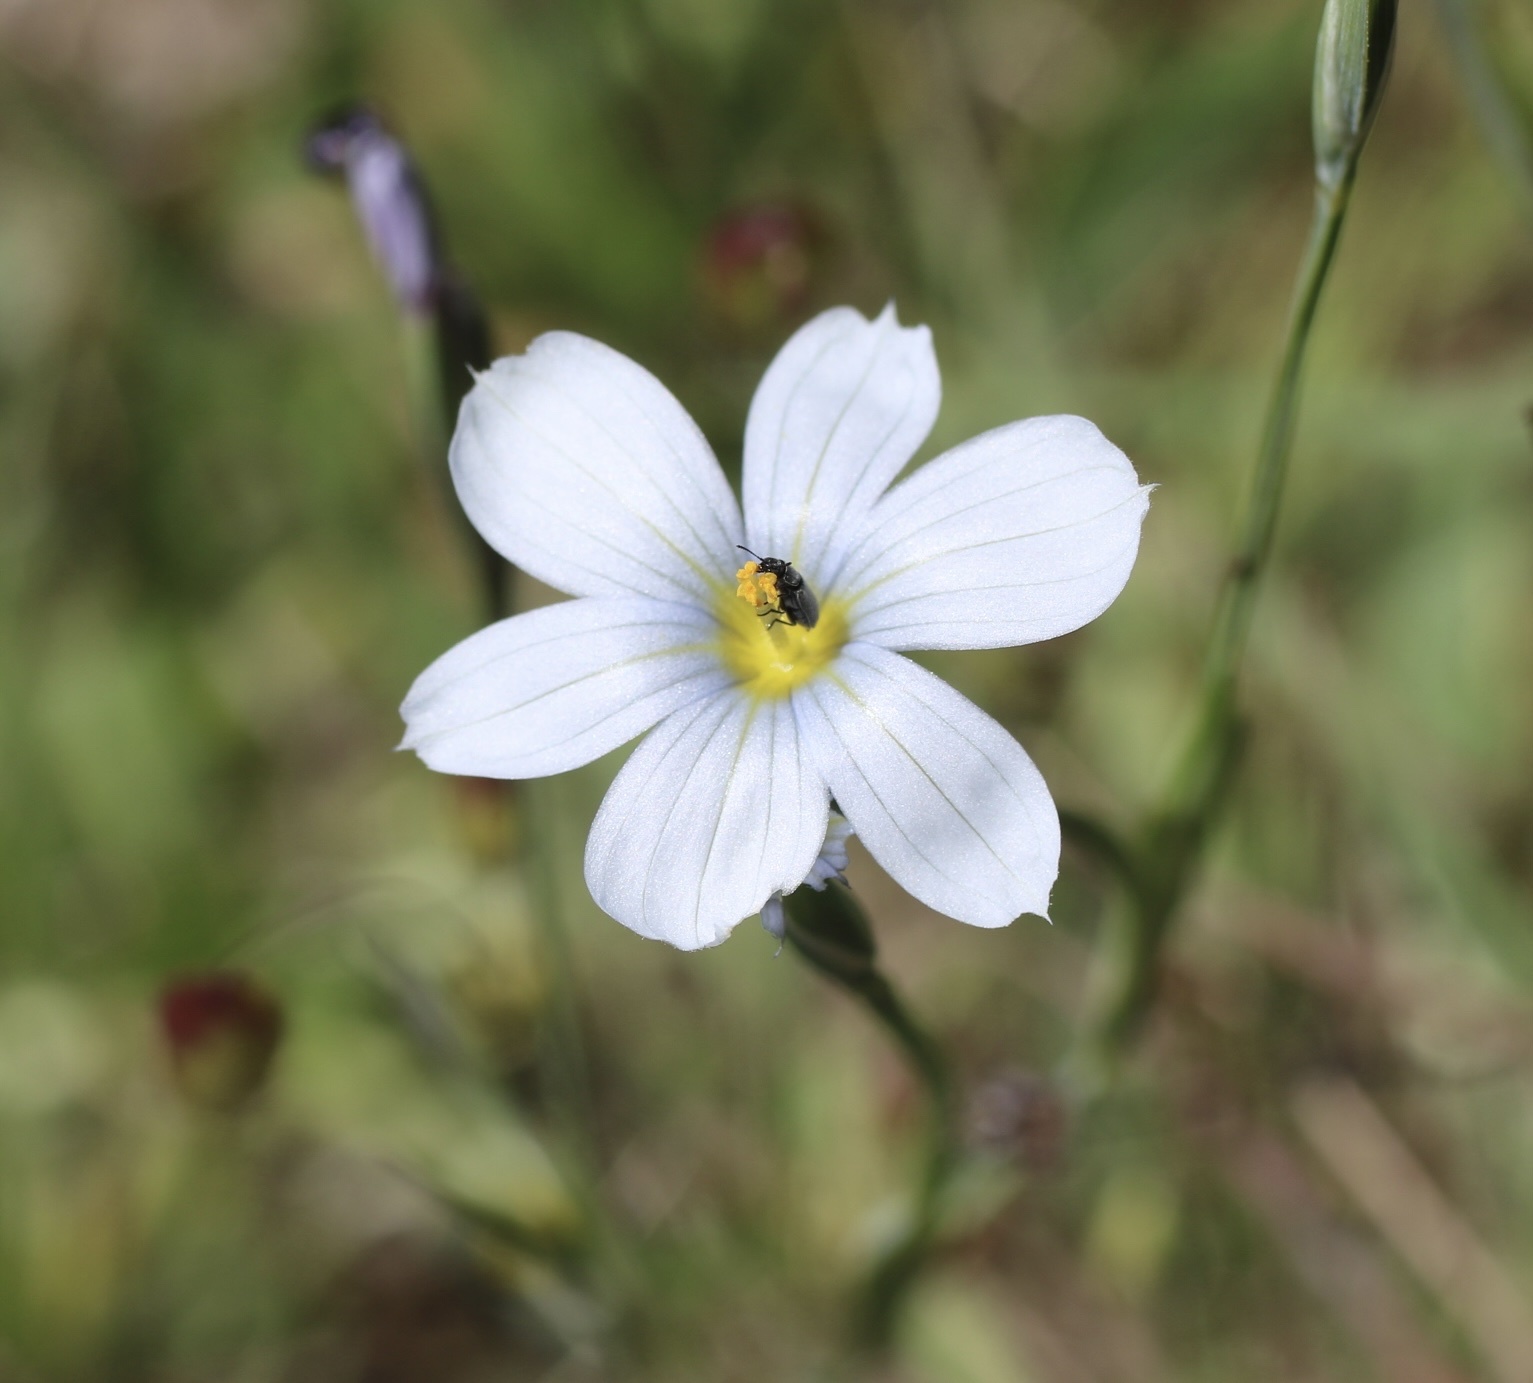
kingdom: Plantae
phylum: Tracheophyta
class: Liliopsida
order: Asparagales
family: Iridaceae
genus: Sisyrinchium
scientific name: Sisyrinchium bellum
